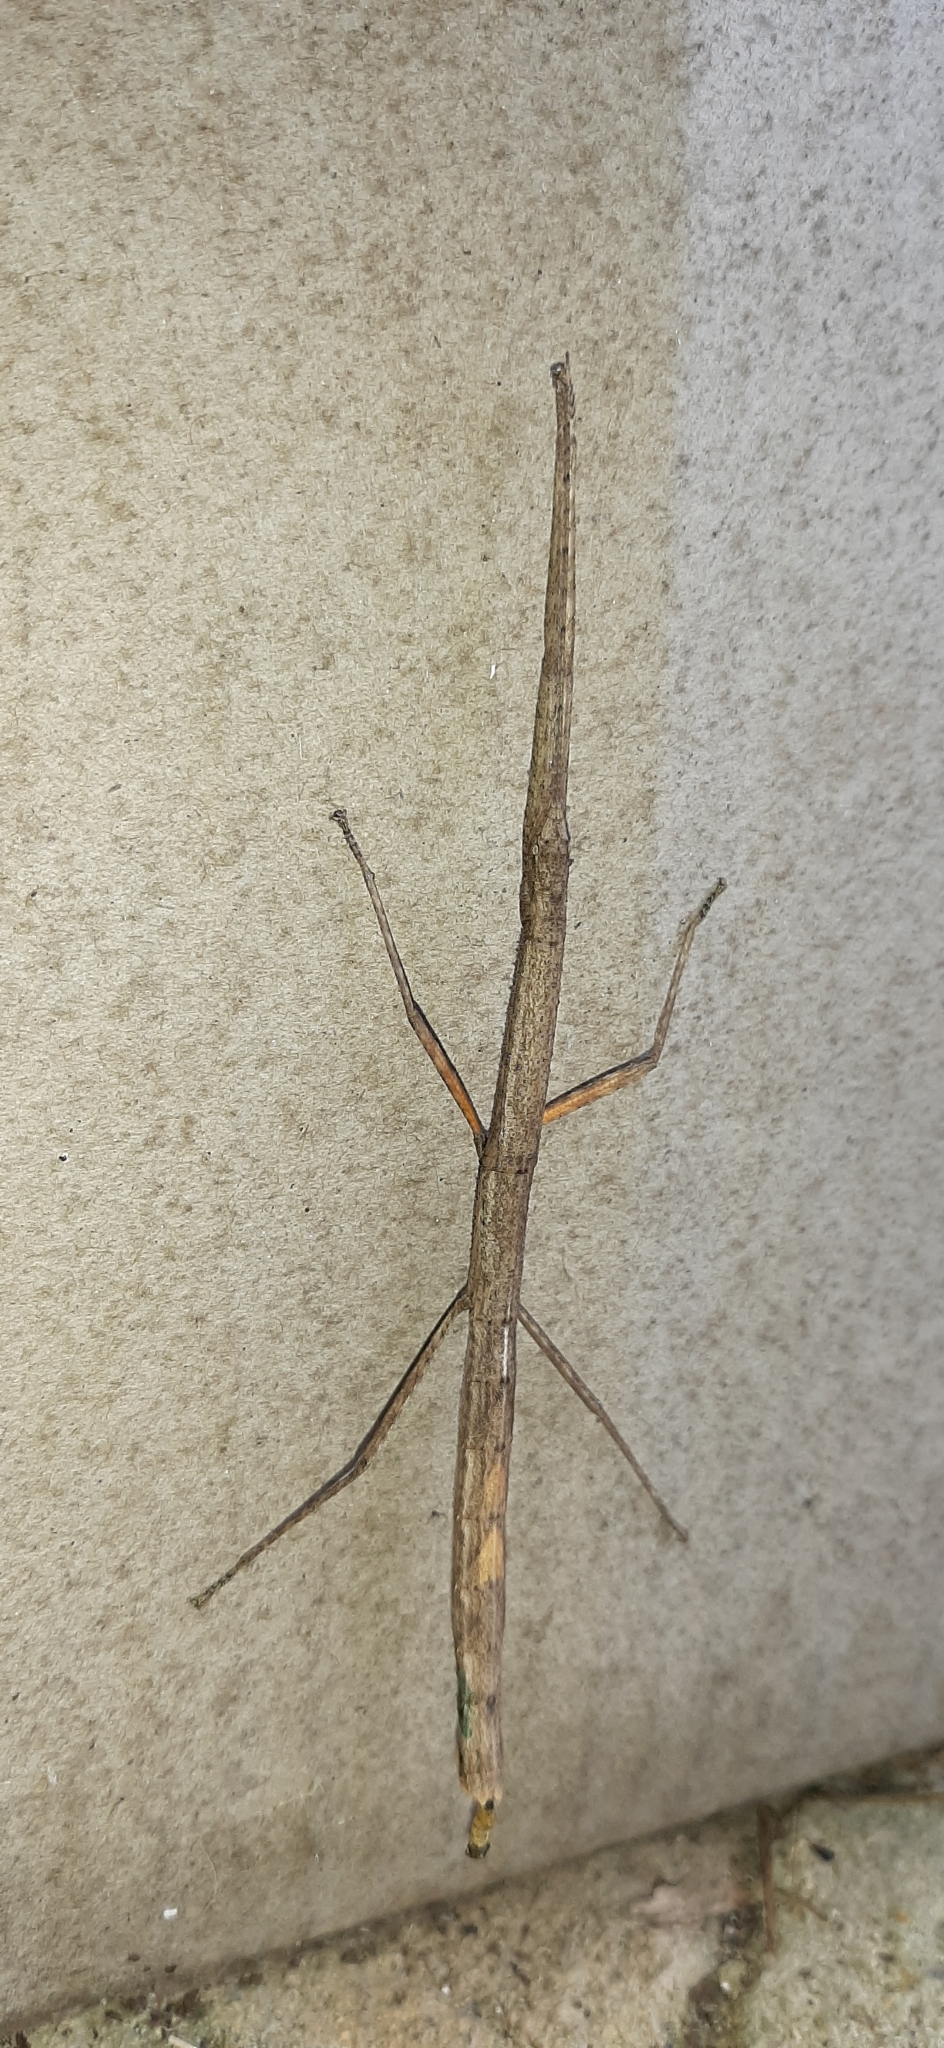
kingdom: Animalia
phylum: Arthropoda
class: Insecta
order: Phasmida
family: Lonchodidae
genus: Carausius
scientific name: Carausius morosus
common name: Indian stick insect
